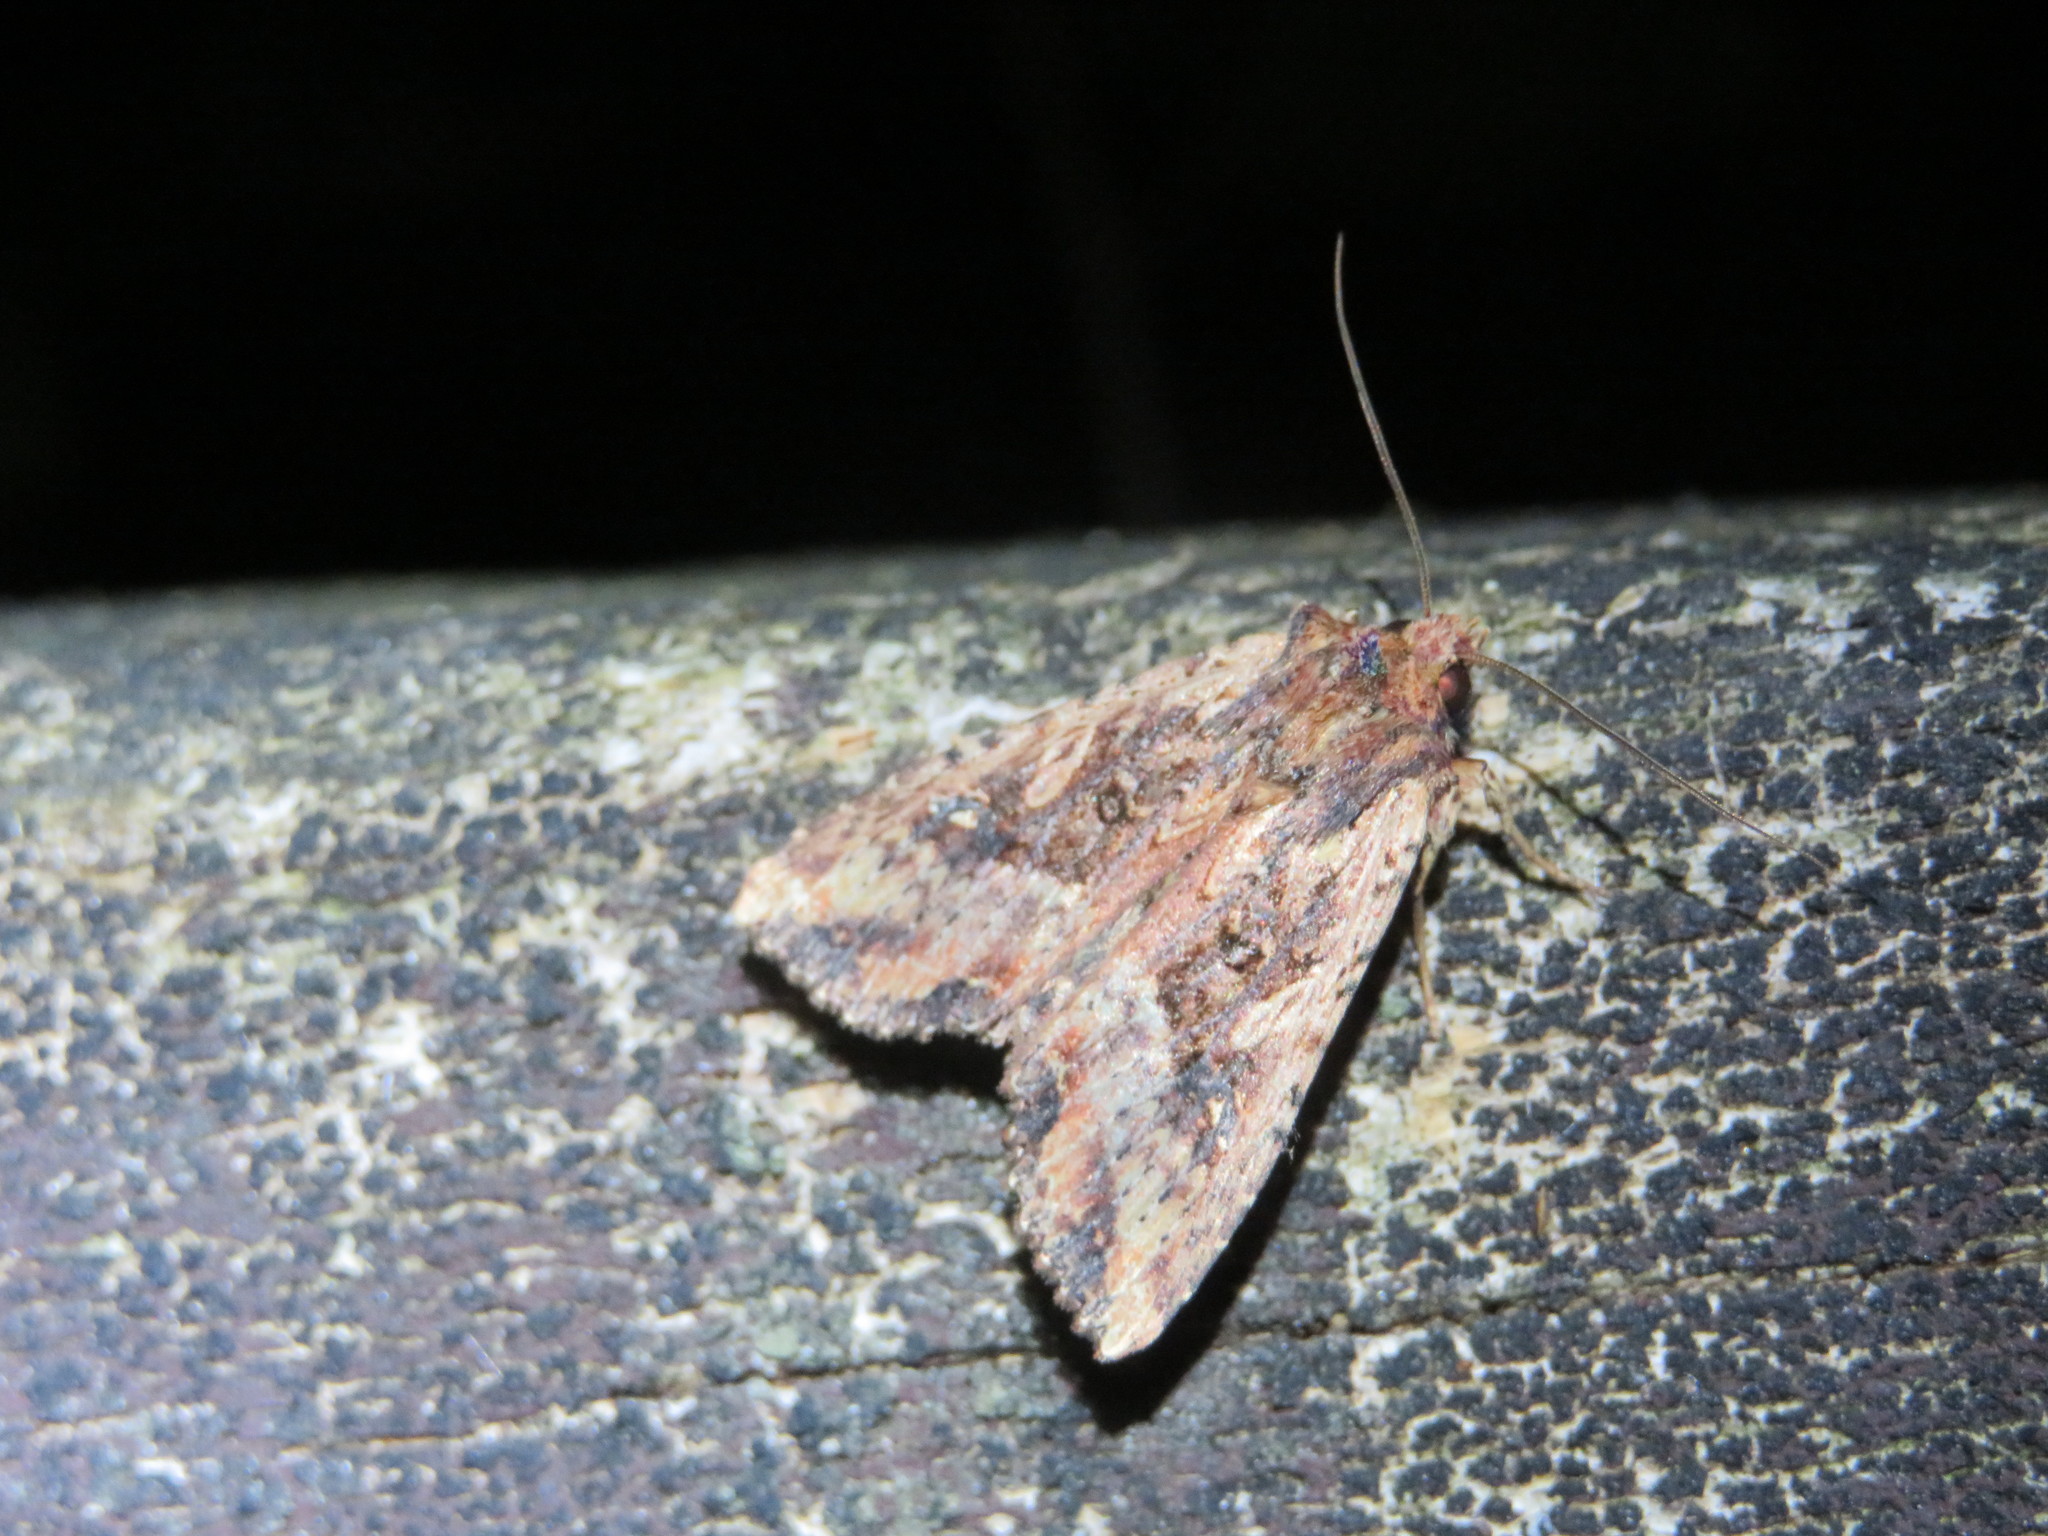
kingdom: Animalia
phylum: Arthropoda
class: Insecta
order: Lepidoptera
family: Noctuidae
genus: Meterana
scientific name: Meterana stipata
